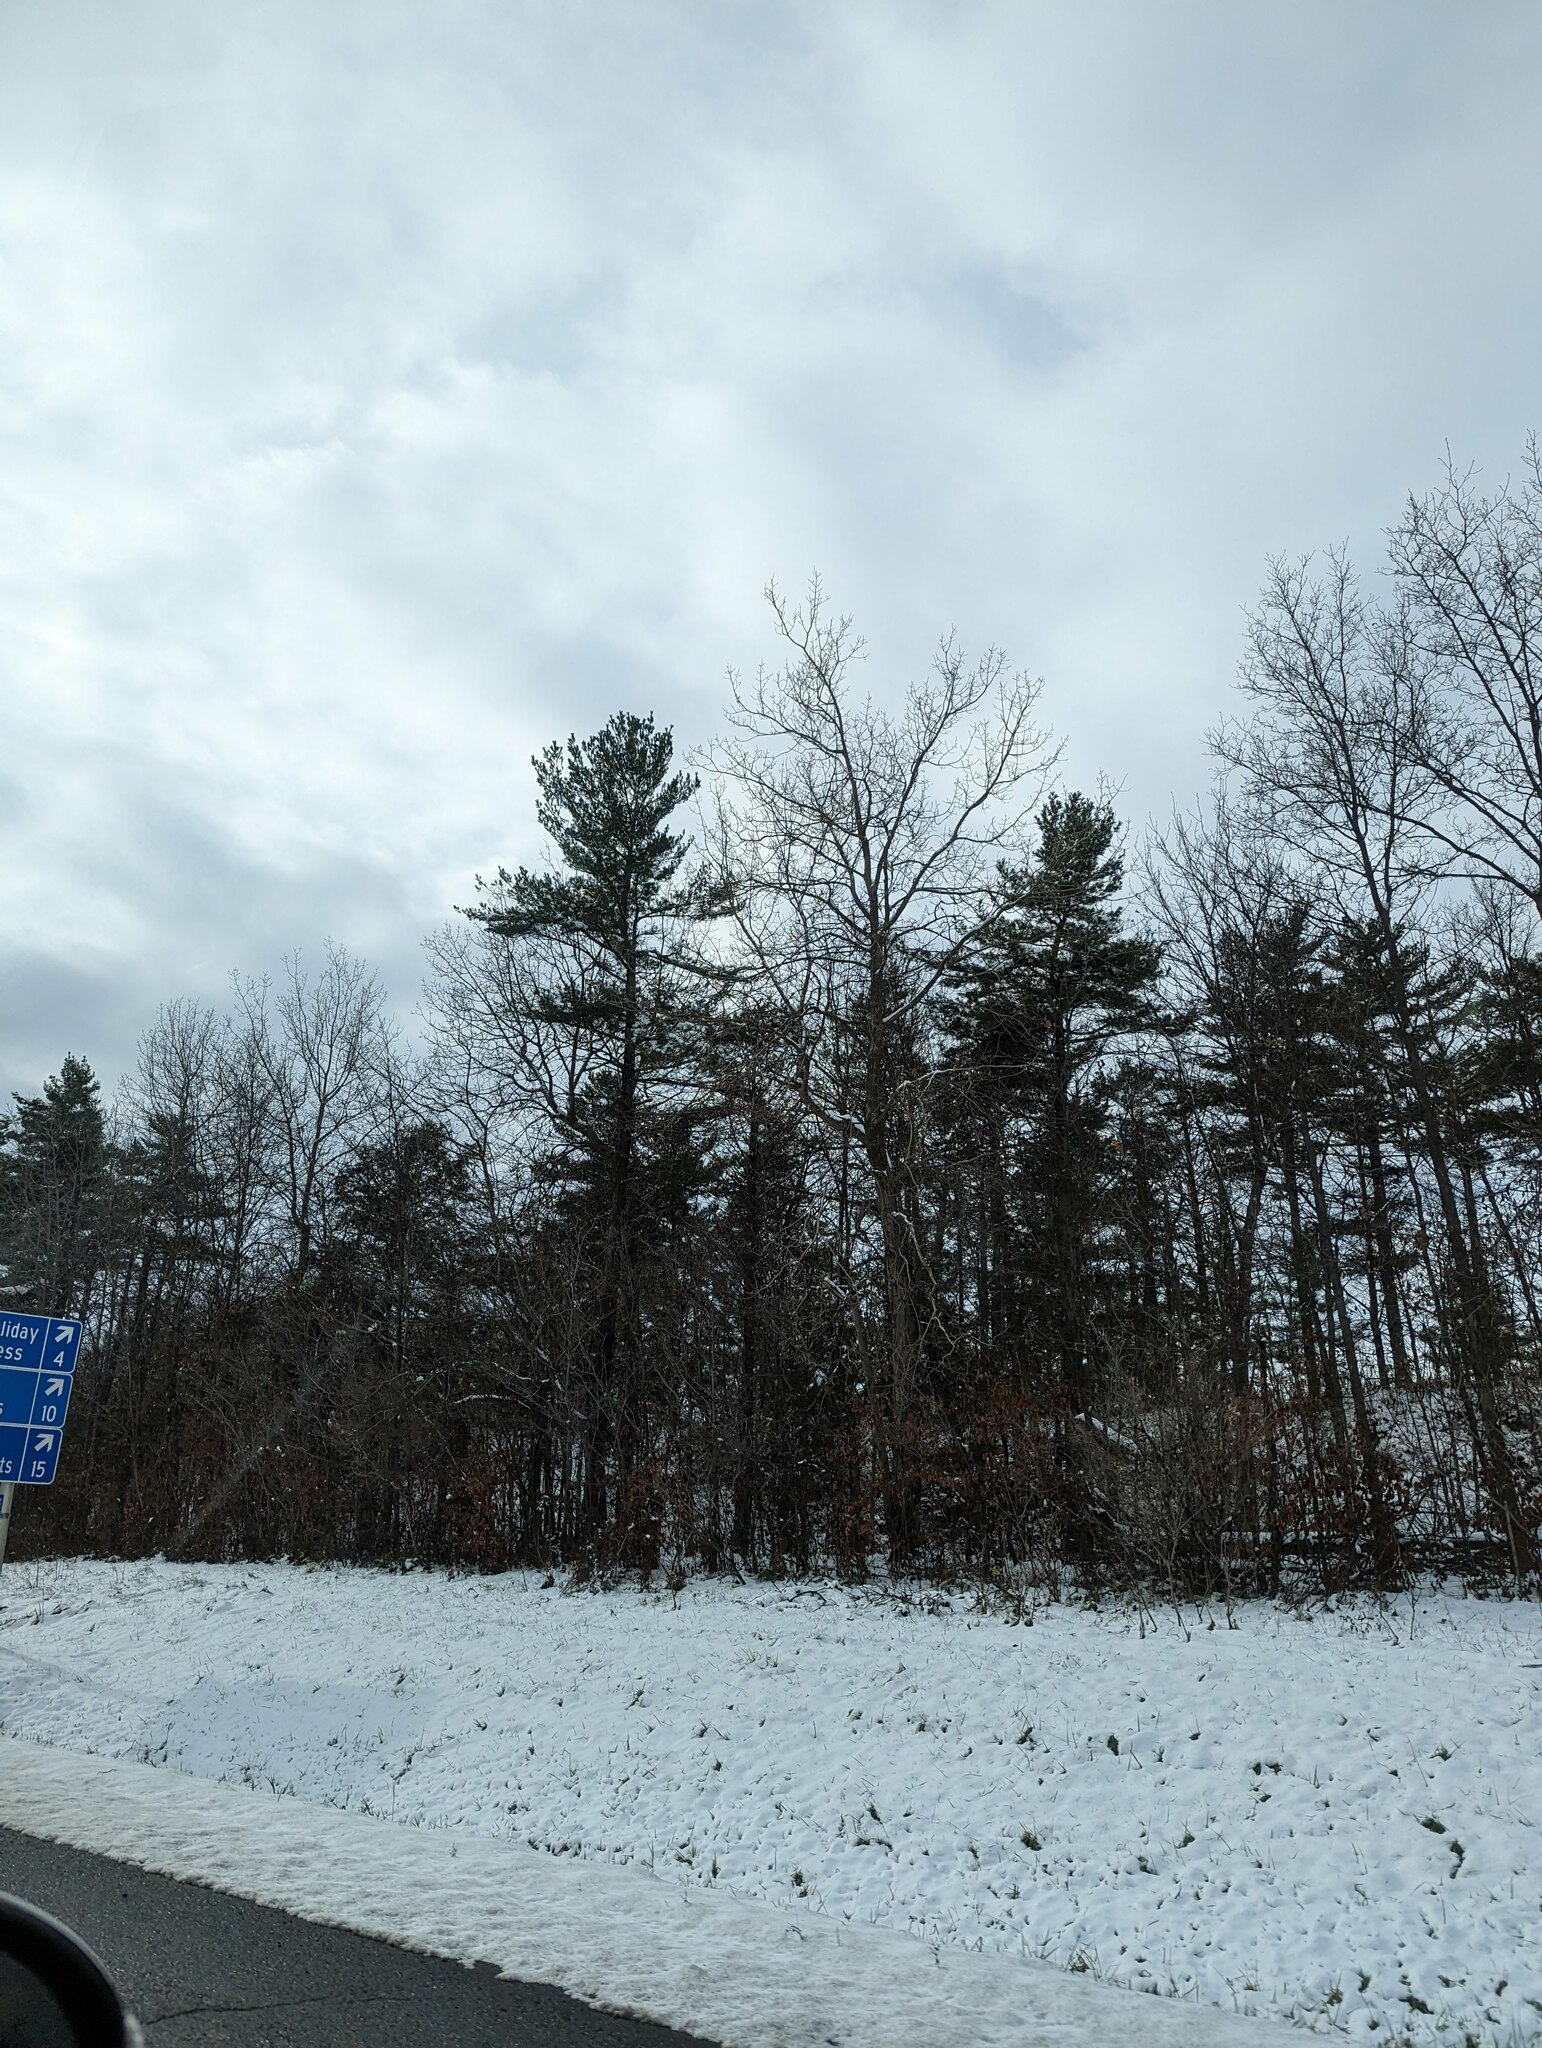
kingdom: Plantae
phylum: Tracheophyta
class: Pinopsida
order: Pinales
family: Pinaceae
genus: Pinus
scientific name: Pinus strobus
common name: Weymouth pine
